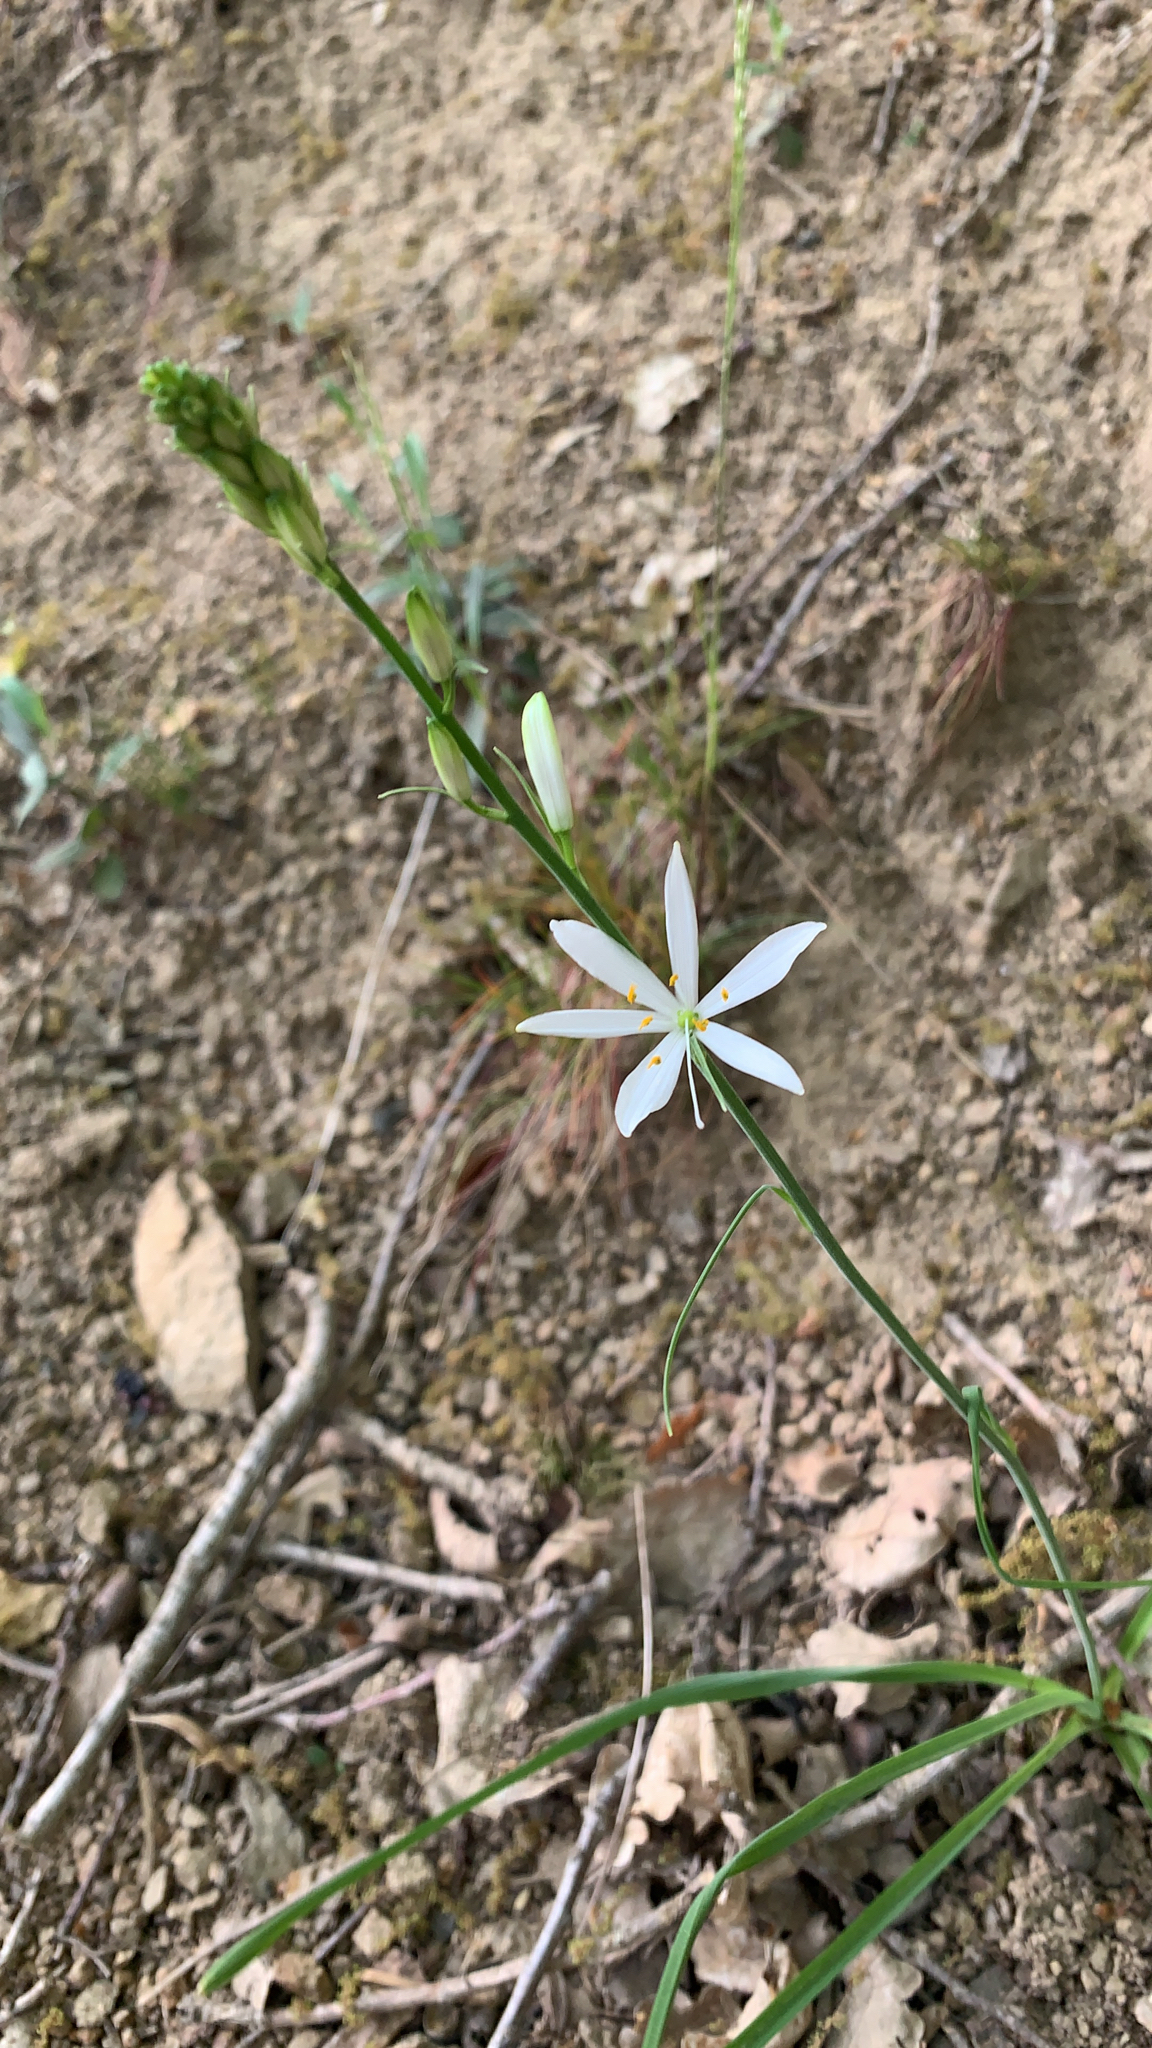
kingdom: Plantae
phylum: Tracheophyta
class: Liliopsida
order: Asparagales
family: Asparagaceae
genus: Anthericum
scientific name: Anthericum liliago
